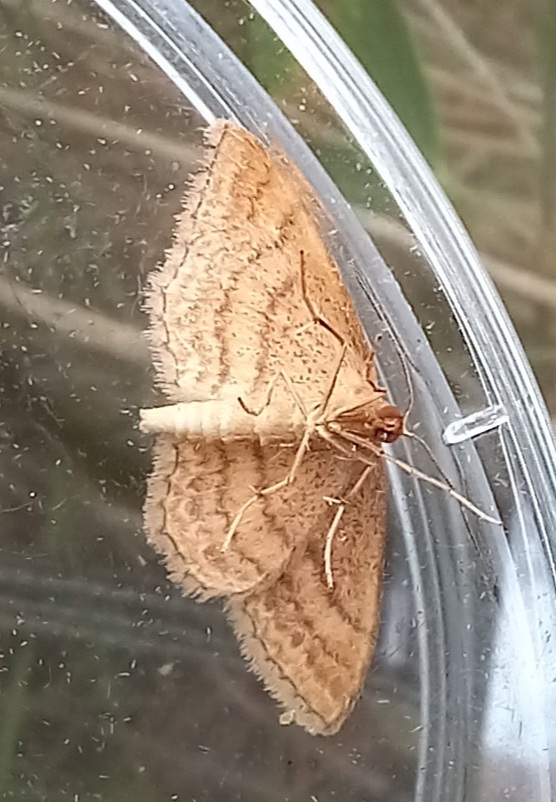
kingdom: Animalia
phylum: Arthropoda
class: Insecta
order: Lepidoptera
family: Geometridae
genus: Idaea
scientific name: Idaea ochrata
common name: Bright wave
